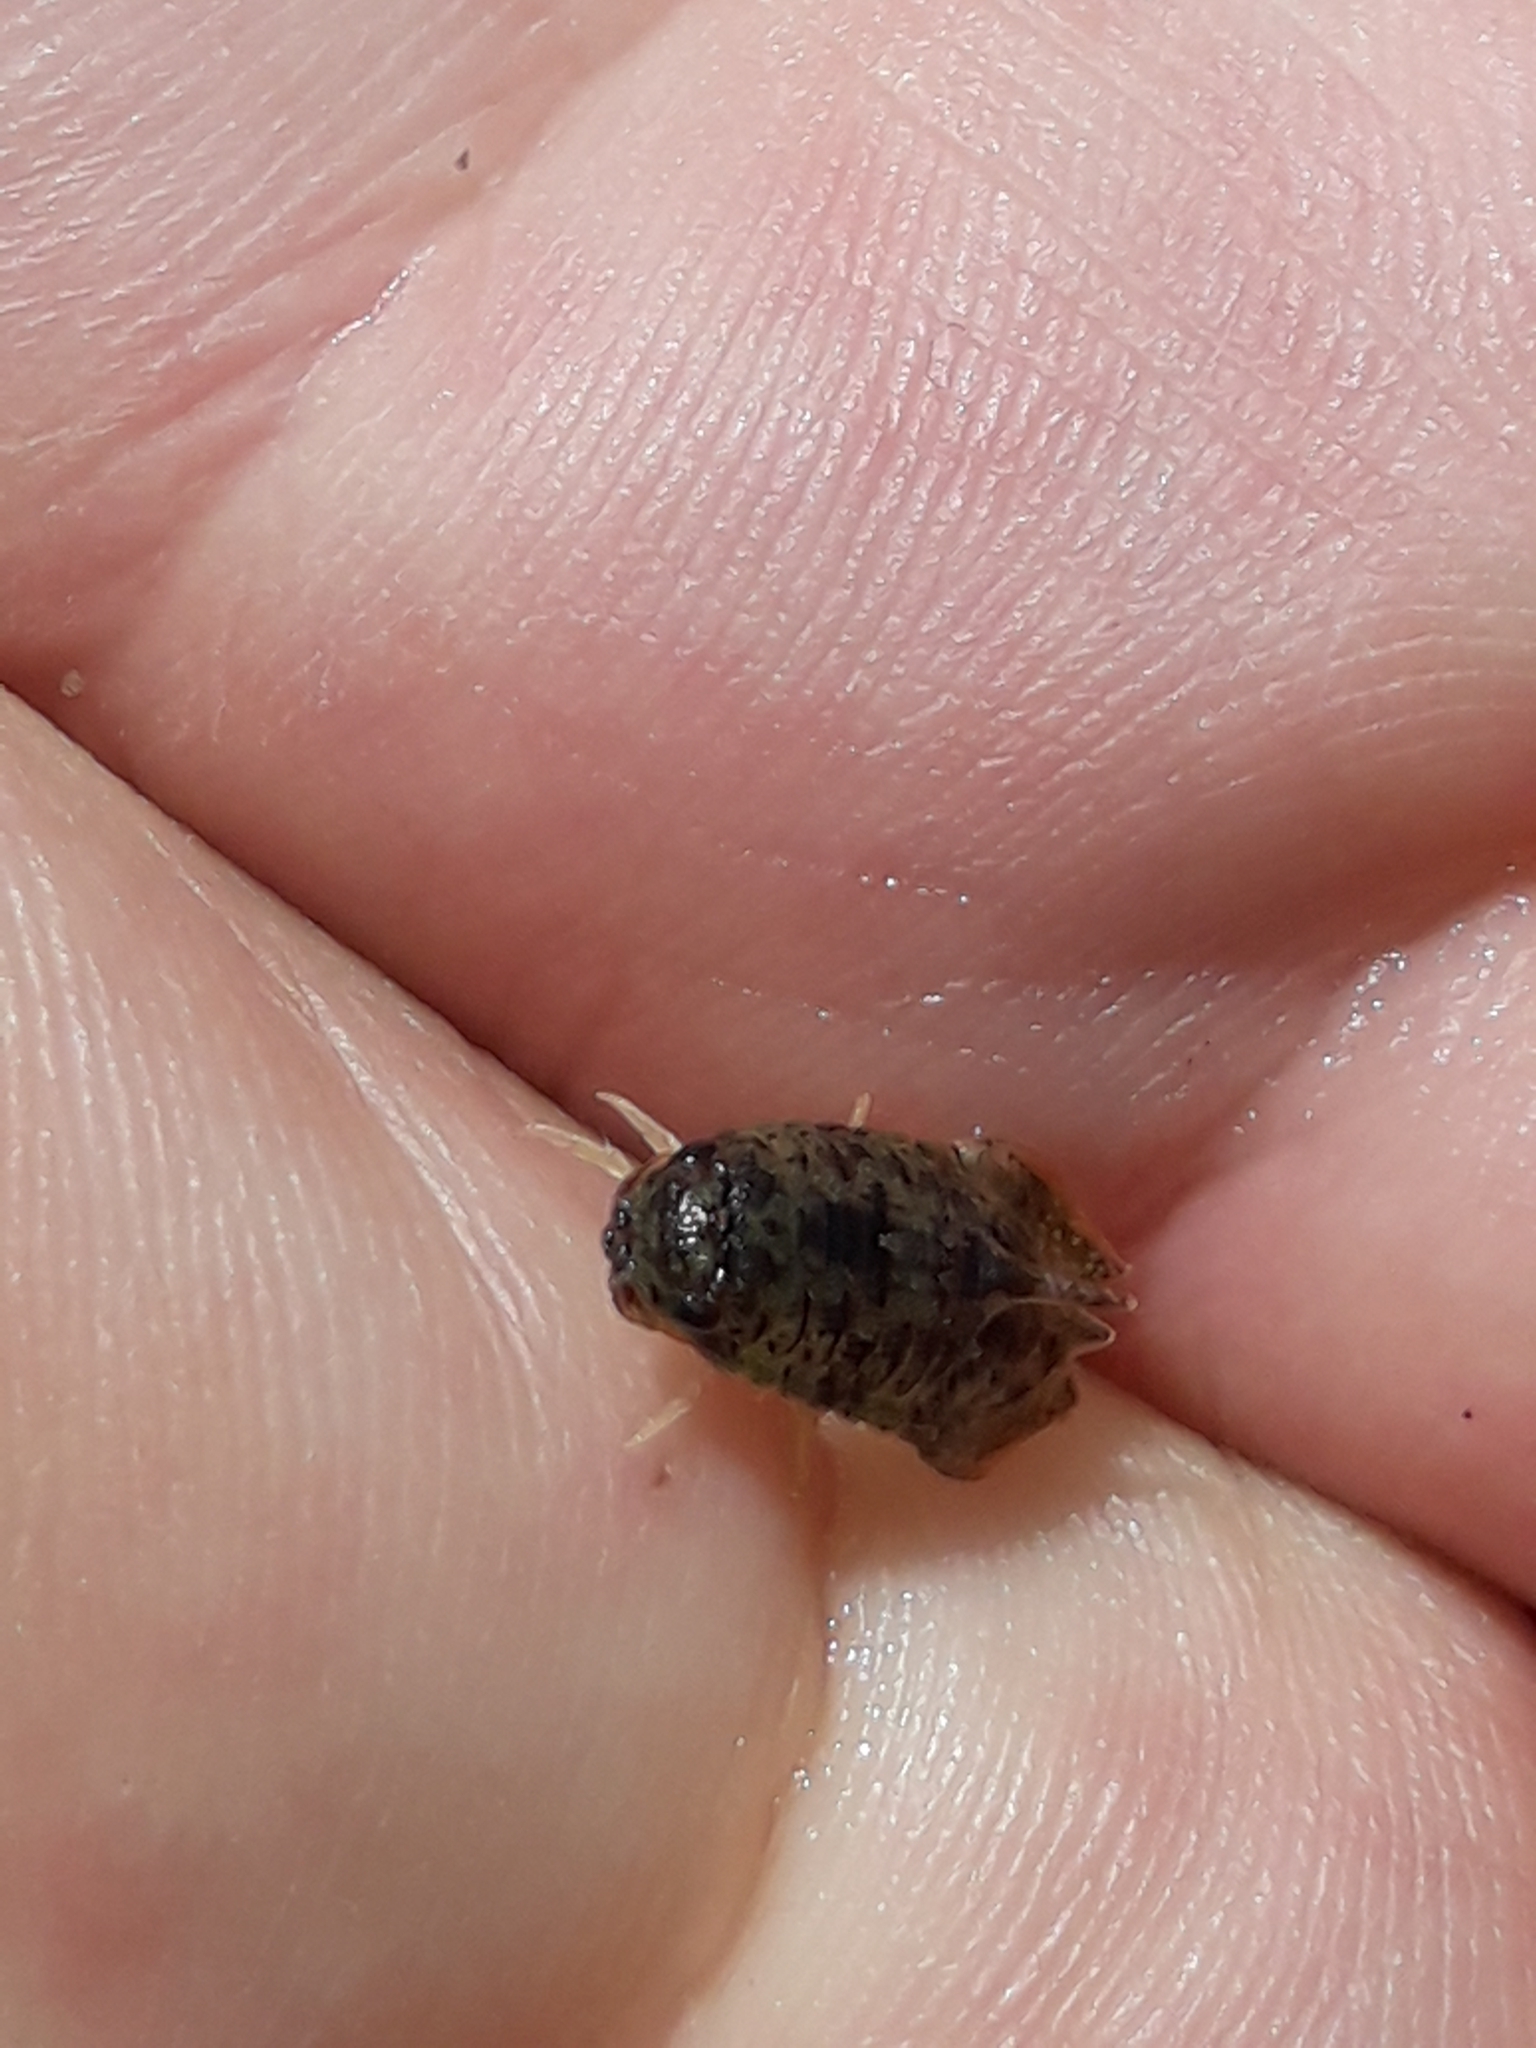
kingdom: Animalia
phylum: Arthropoda
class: Malacostraca
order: Isopoda
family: Sphaeromatidae
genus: Isocladus
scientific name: Isocladus armatus
